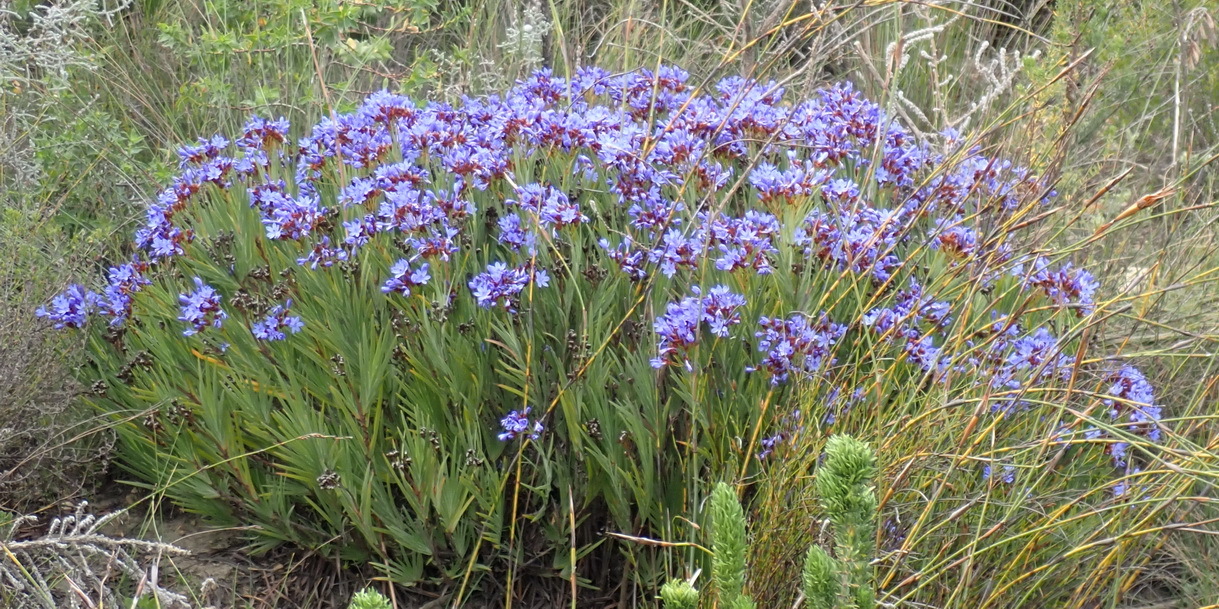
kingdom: Plantae
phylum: Tracheophyta
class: Liliopsida
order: Asparagales
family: Iridaceae
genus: Nivenia
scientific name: Nivenia binata
